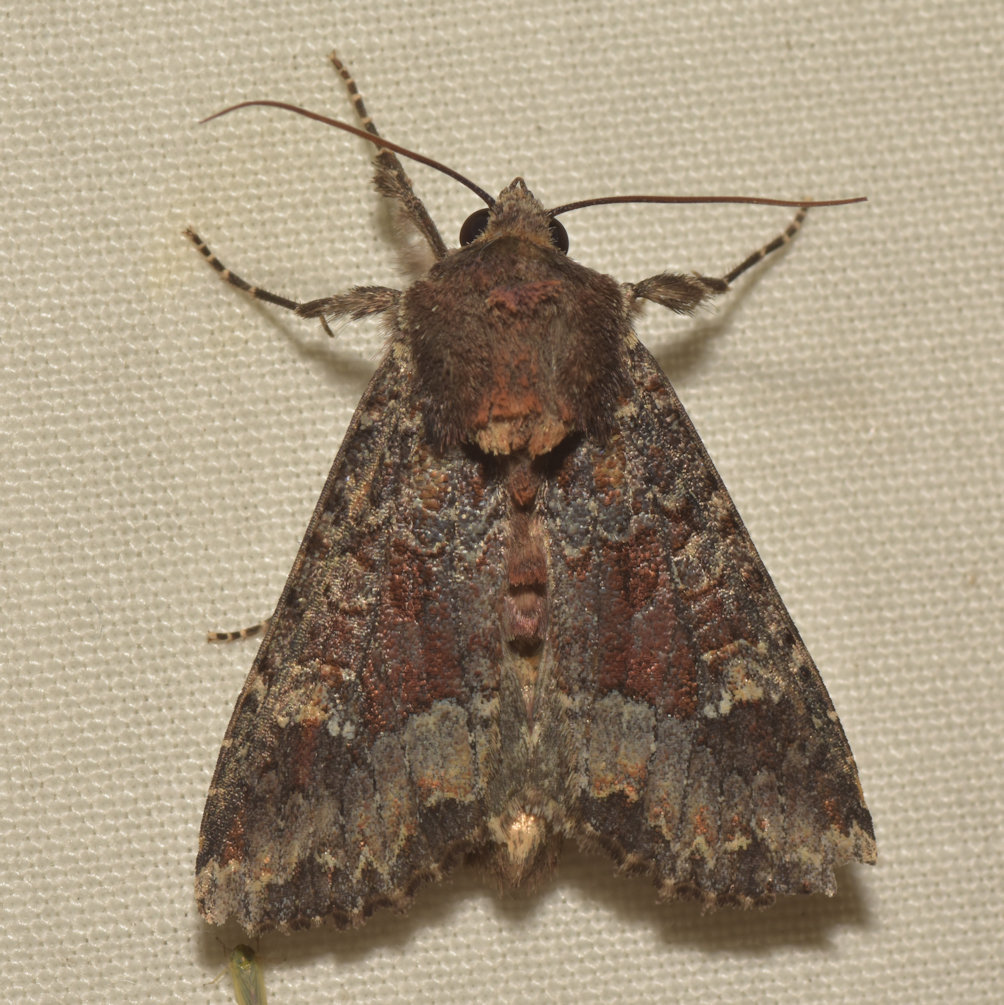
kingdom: Animalia
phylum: Arthropoda
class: Insecta
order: Lepidoptera
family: Noctuidae
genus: Apamea
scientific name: Apamea amputatrix
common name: Yellow-headed cutworm moth
